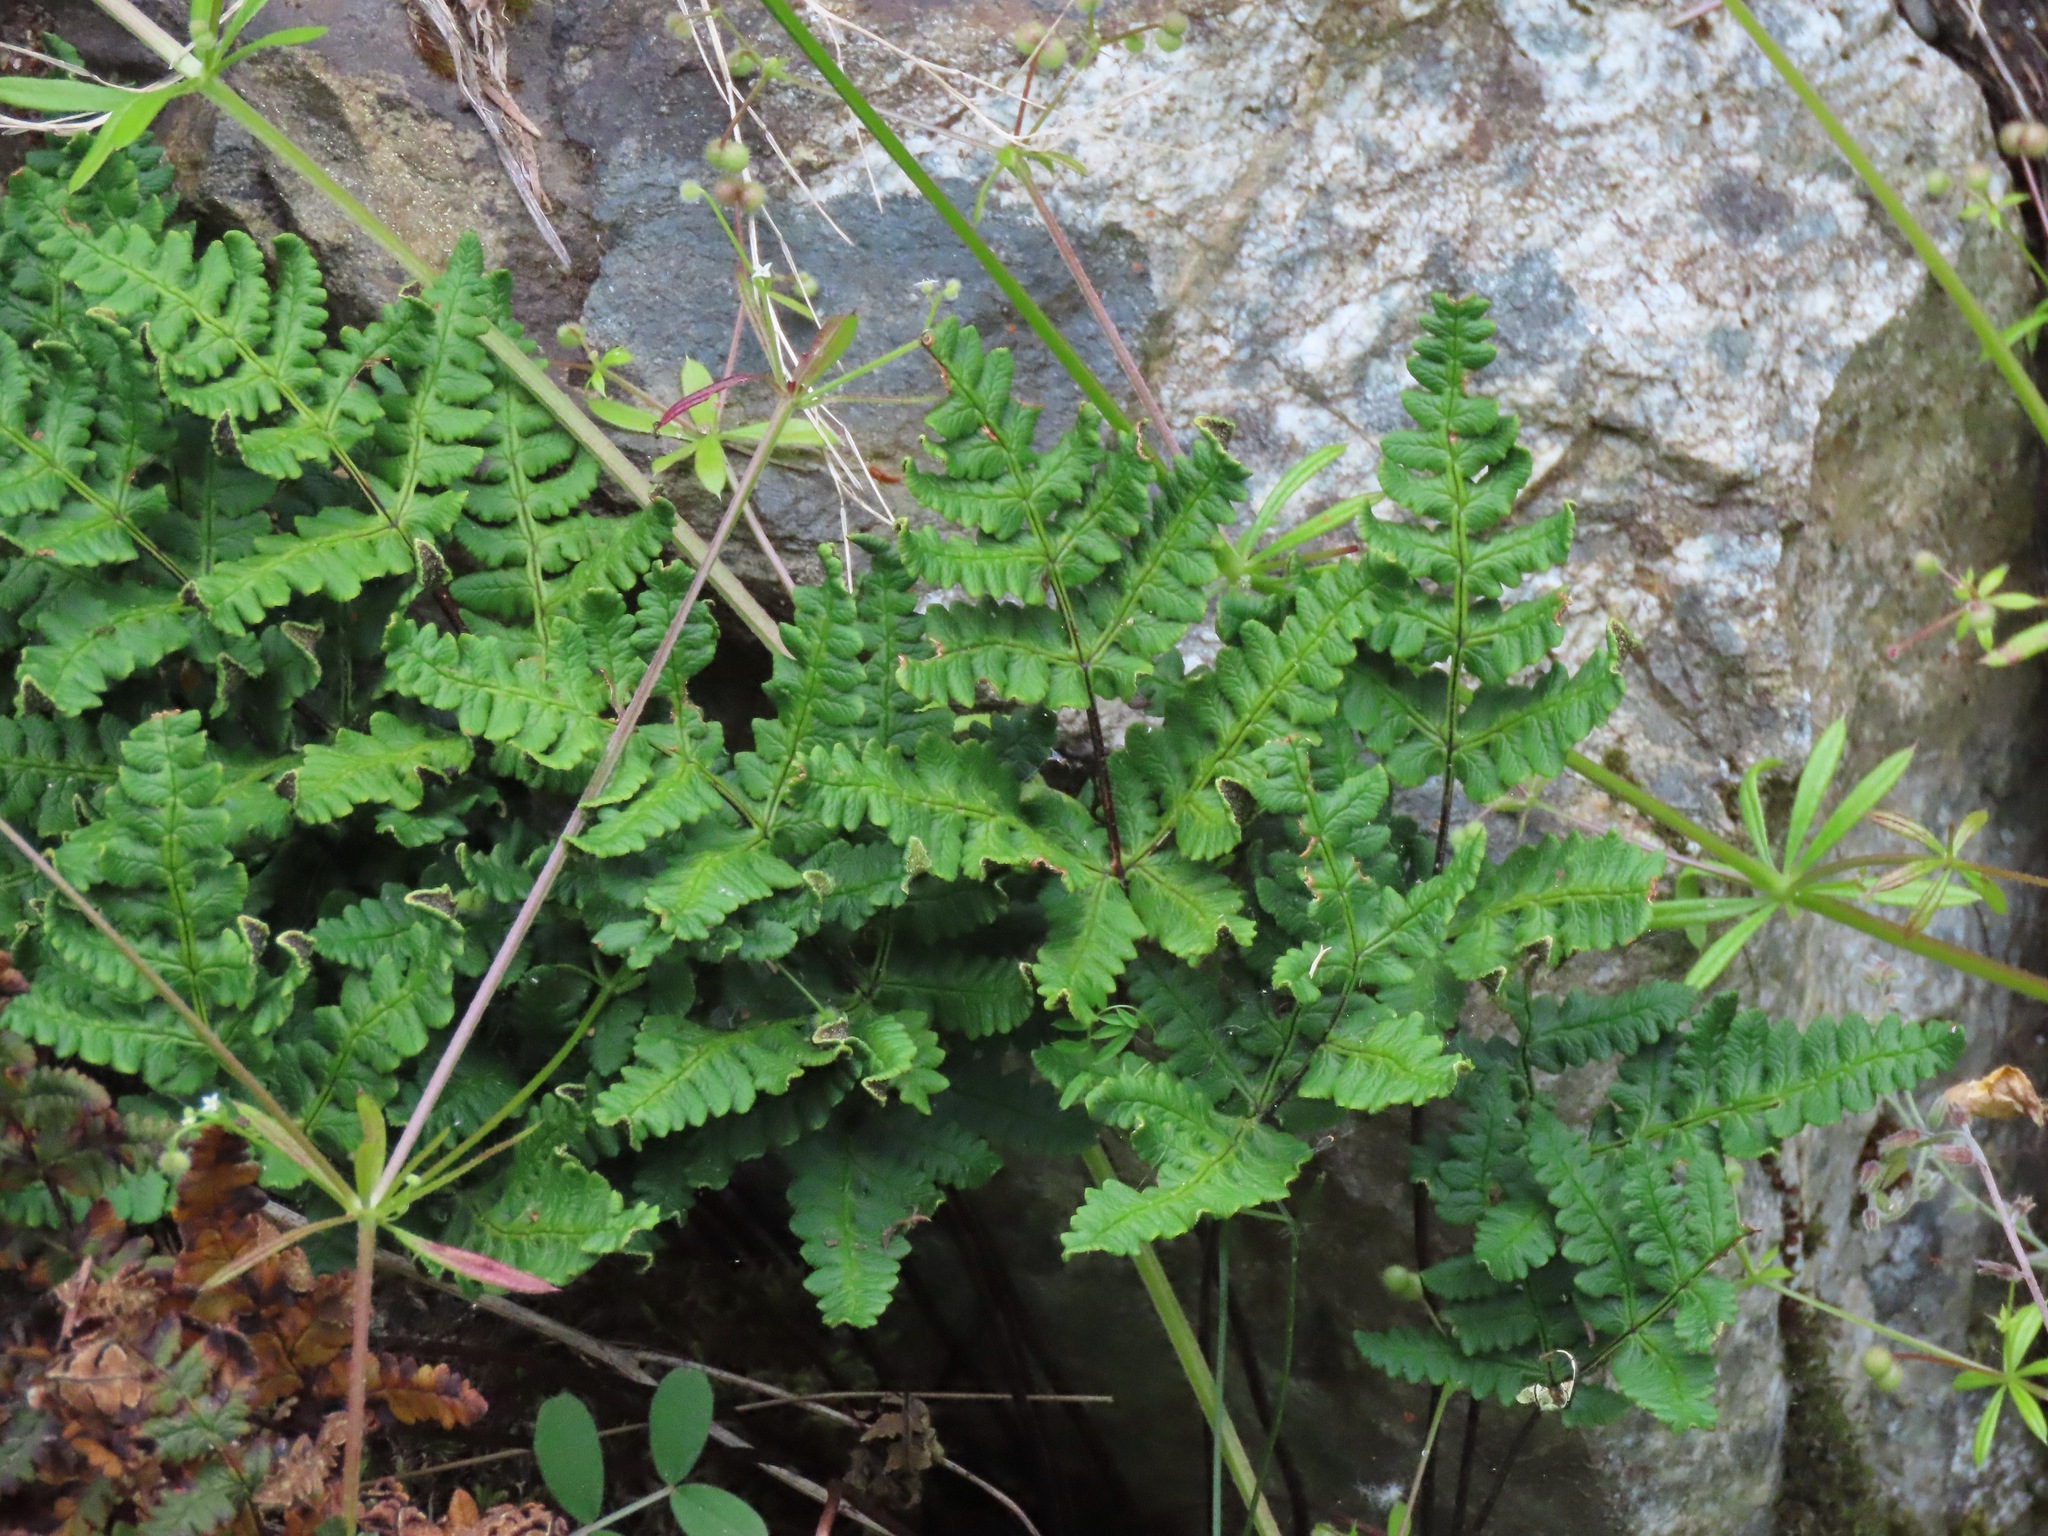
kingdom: Plantae
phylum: Tracheophyta
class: Polypodiopsida
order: Polypodiales
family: Pteridaceae
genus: Pentagramma
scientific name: Pentagramma triangularis
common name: Gold fern
